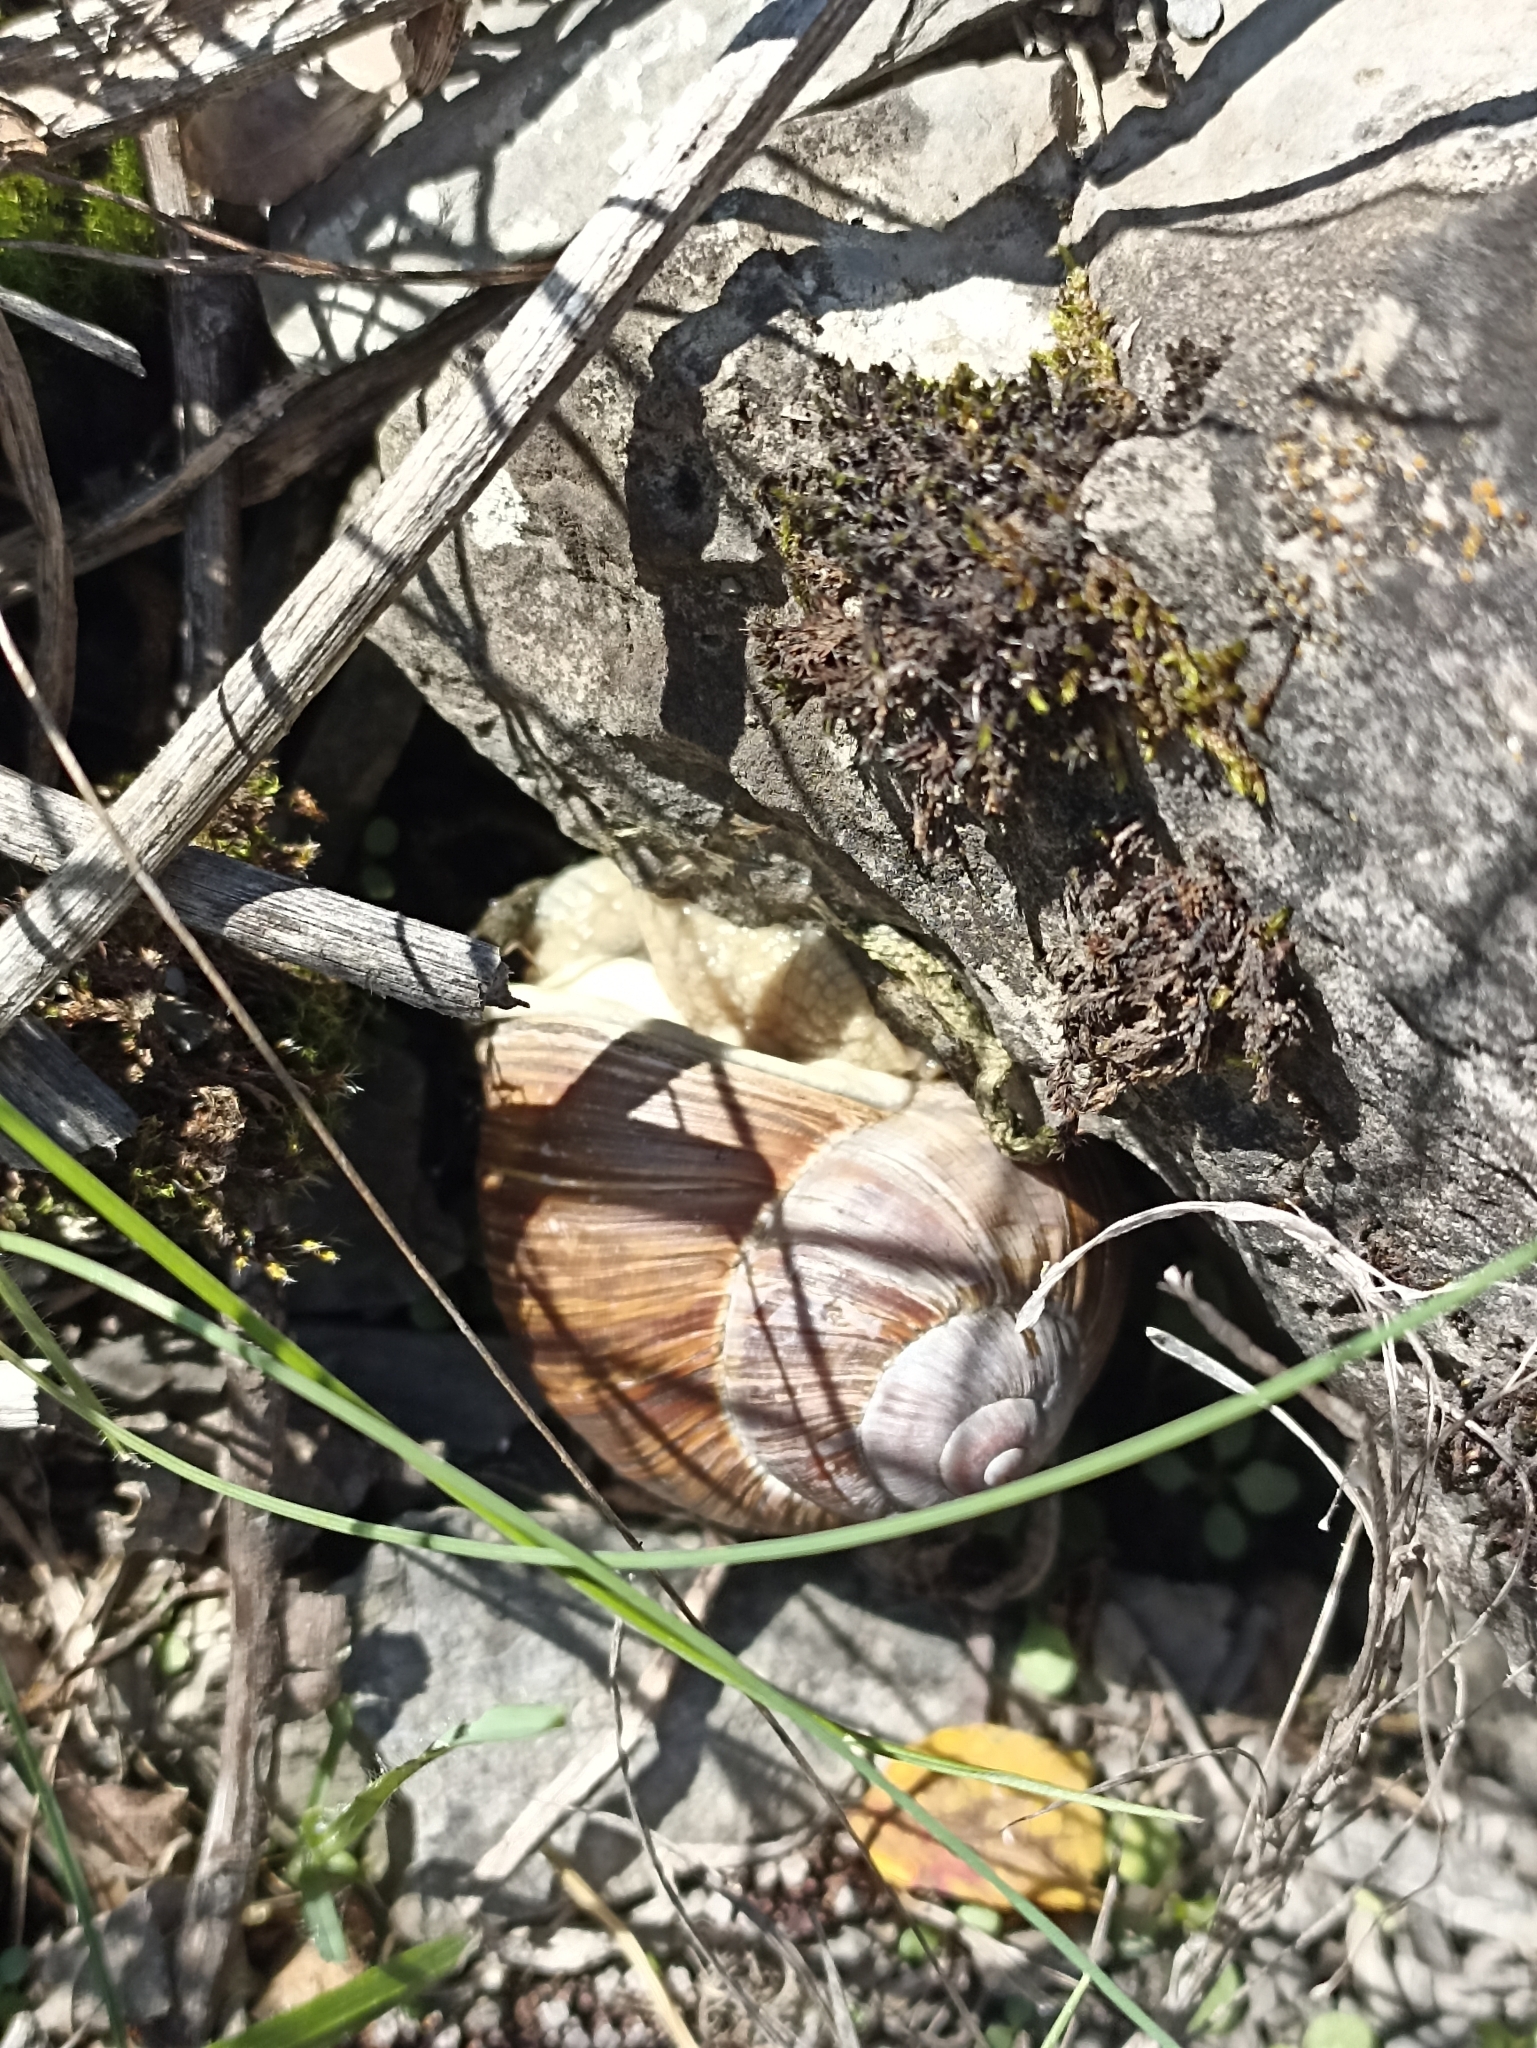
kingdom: Animalia
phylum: Mollusca
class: Gastropoda
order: Stylommatophora
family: Helicidae
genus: Helix
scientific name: Helix pomatia
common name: Roman snail
